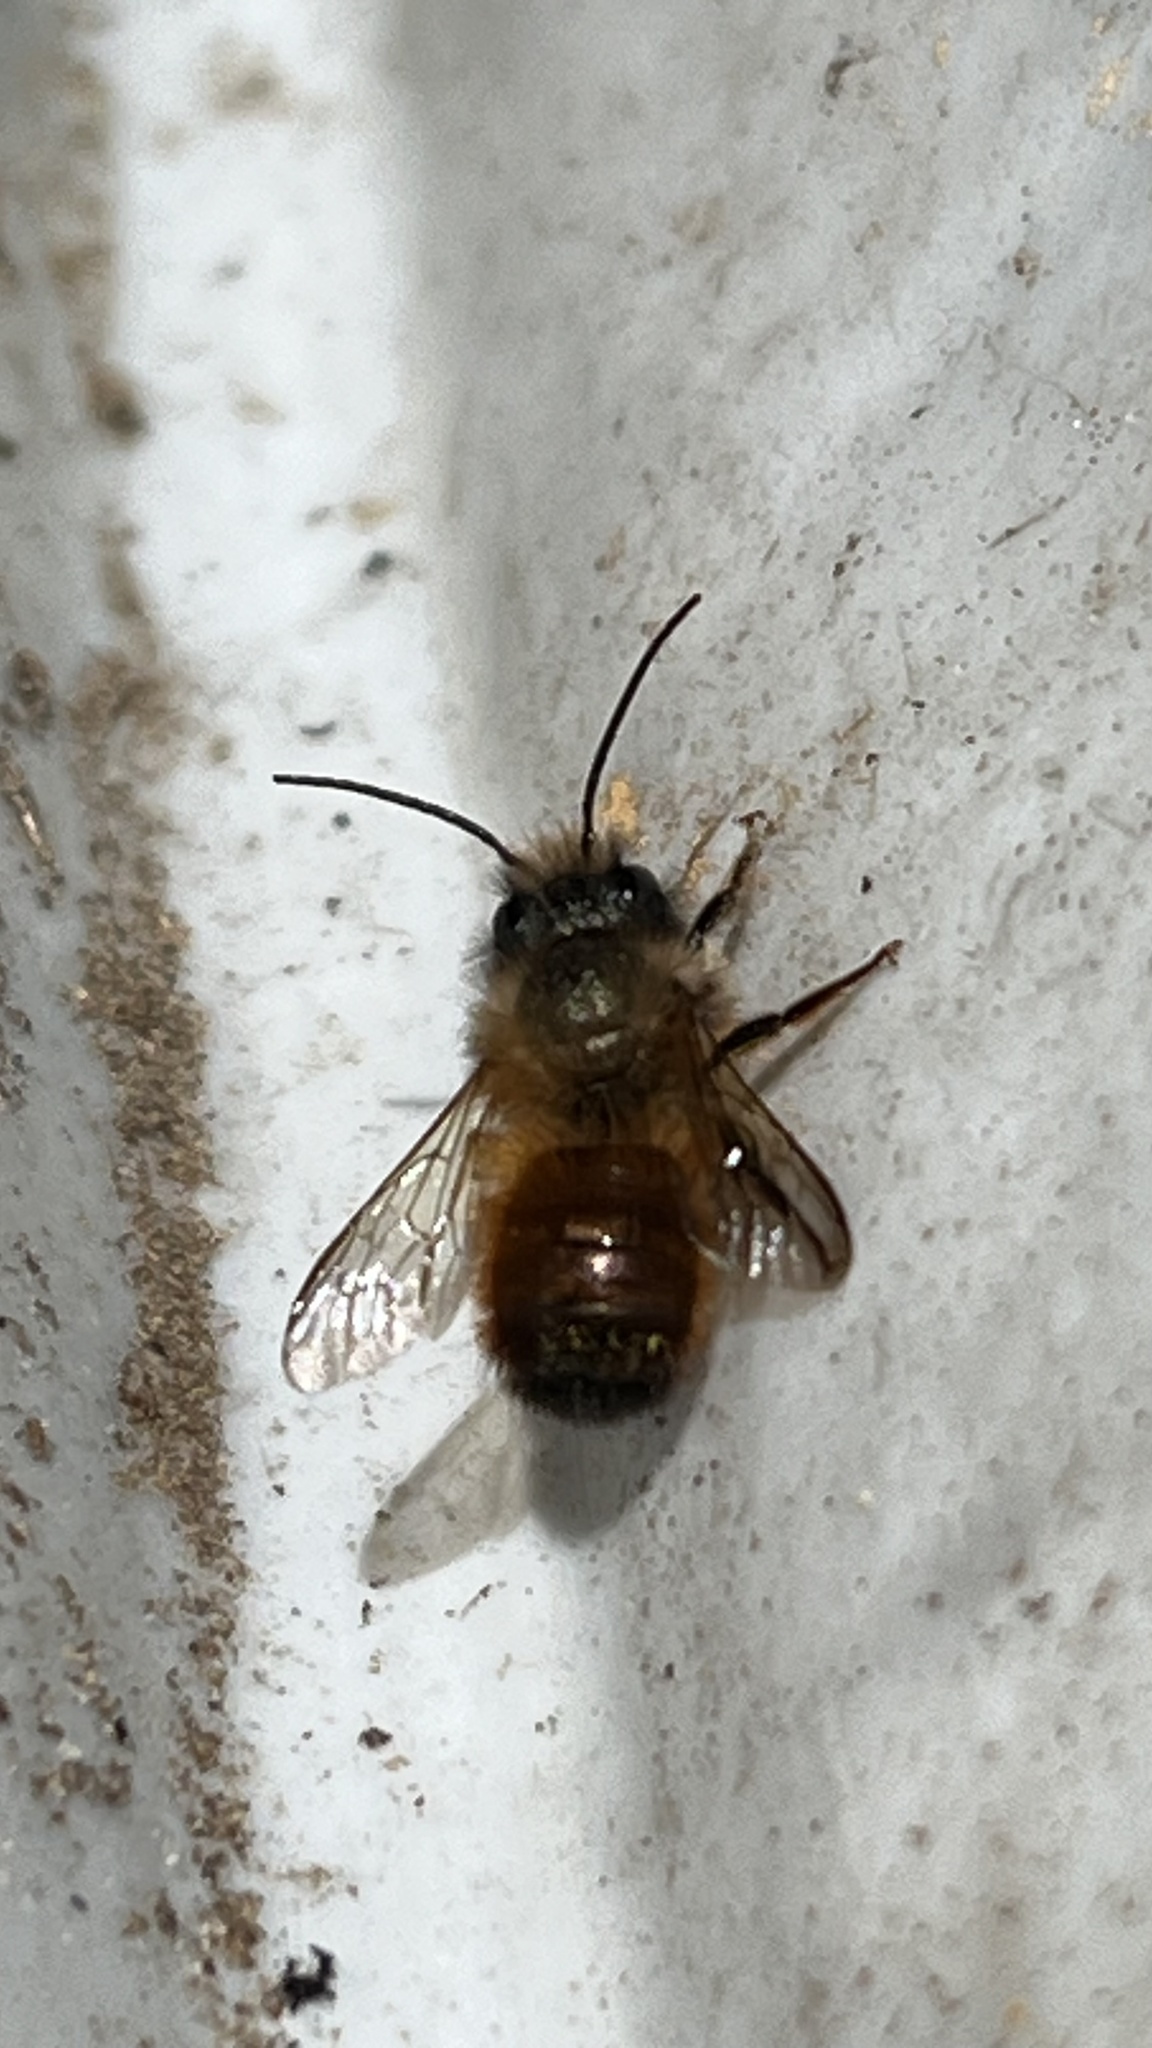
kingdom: Animalia
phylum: Arthropoda
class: Insecta
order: Hymenoptera
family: Megachilidae
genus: Osmia
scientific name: Osmia bicornis
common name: Red mason bee
